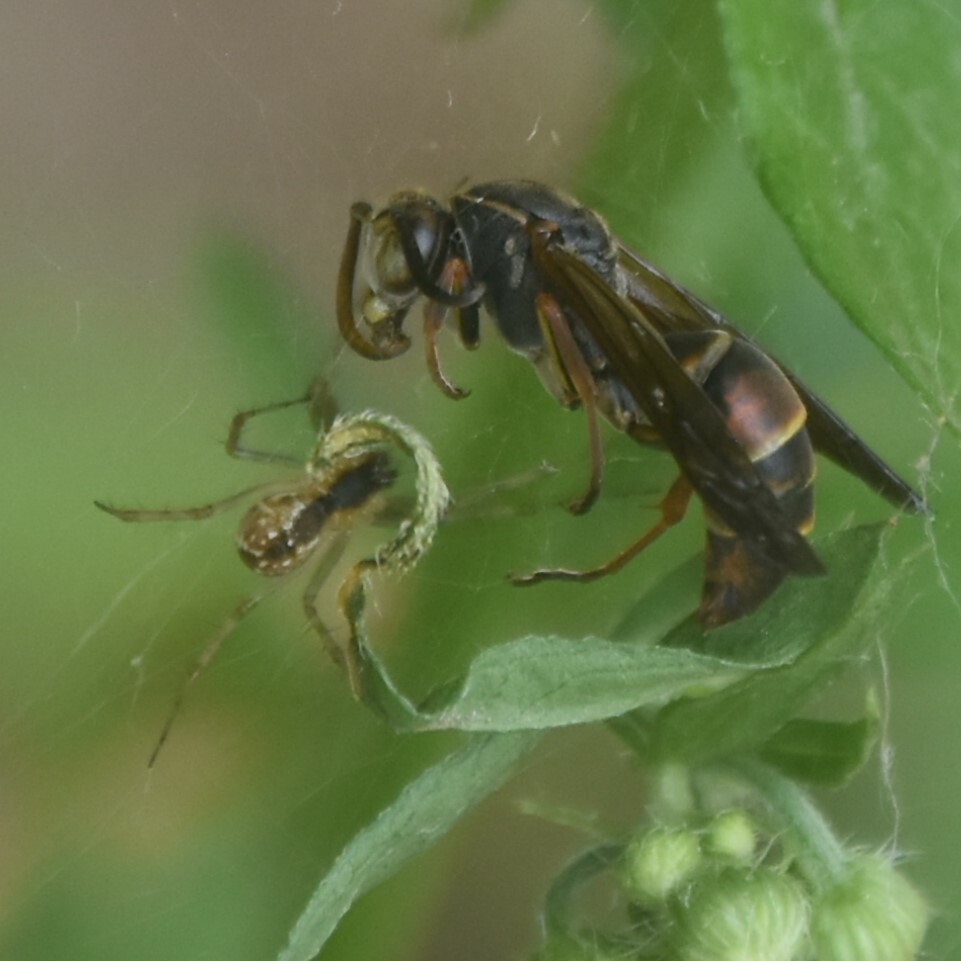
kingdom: Animalia
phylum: Arthropoda
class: Insecta
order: Hymenoptera
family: Eumenidae
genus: Knemodynerus
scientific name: Knemodynerus multimaculatus
